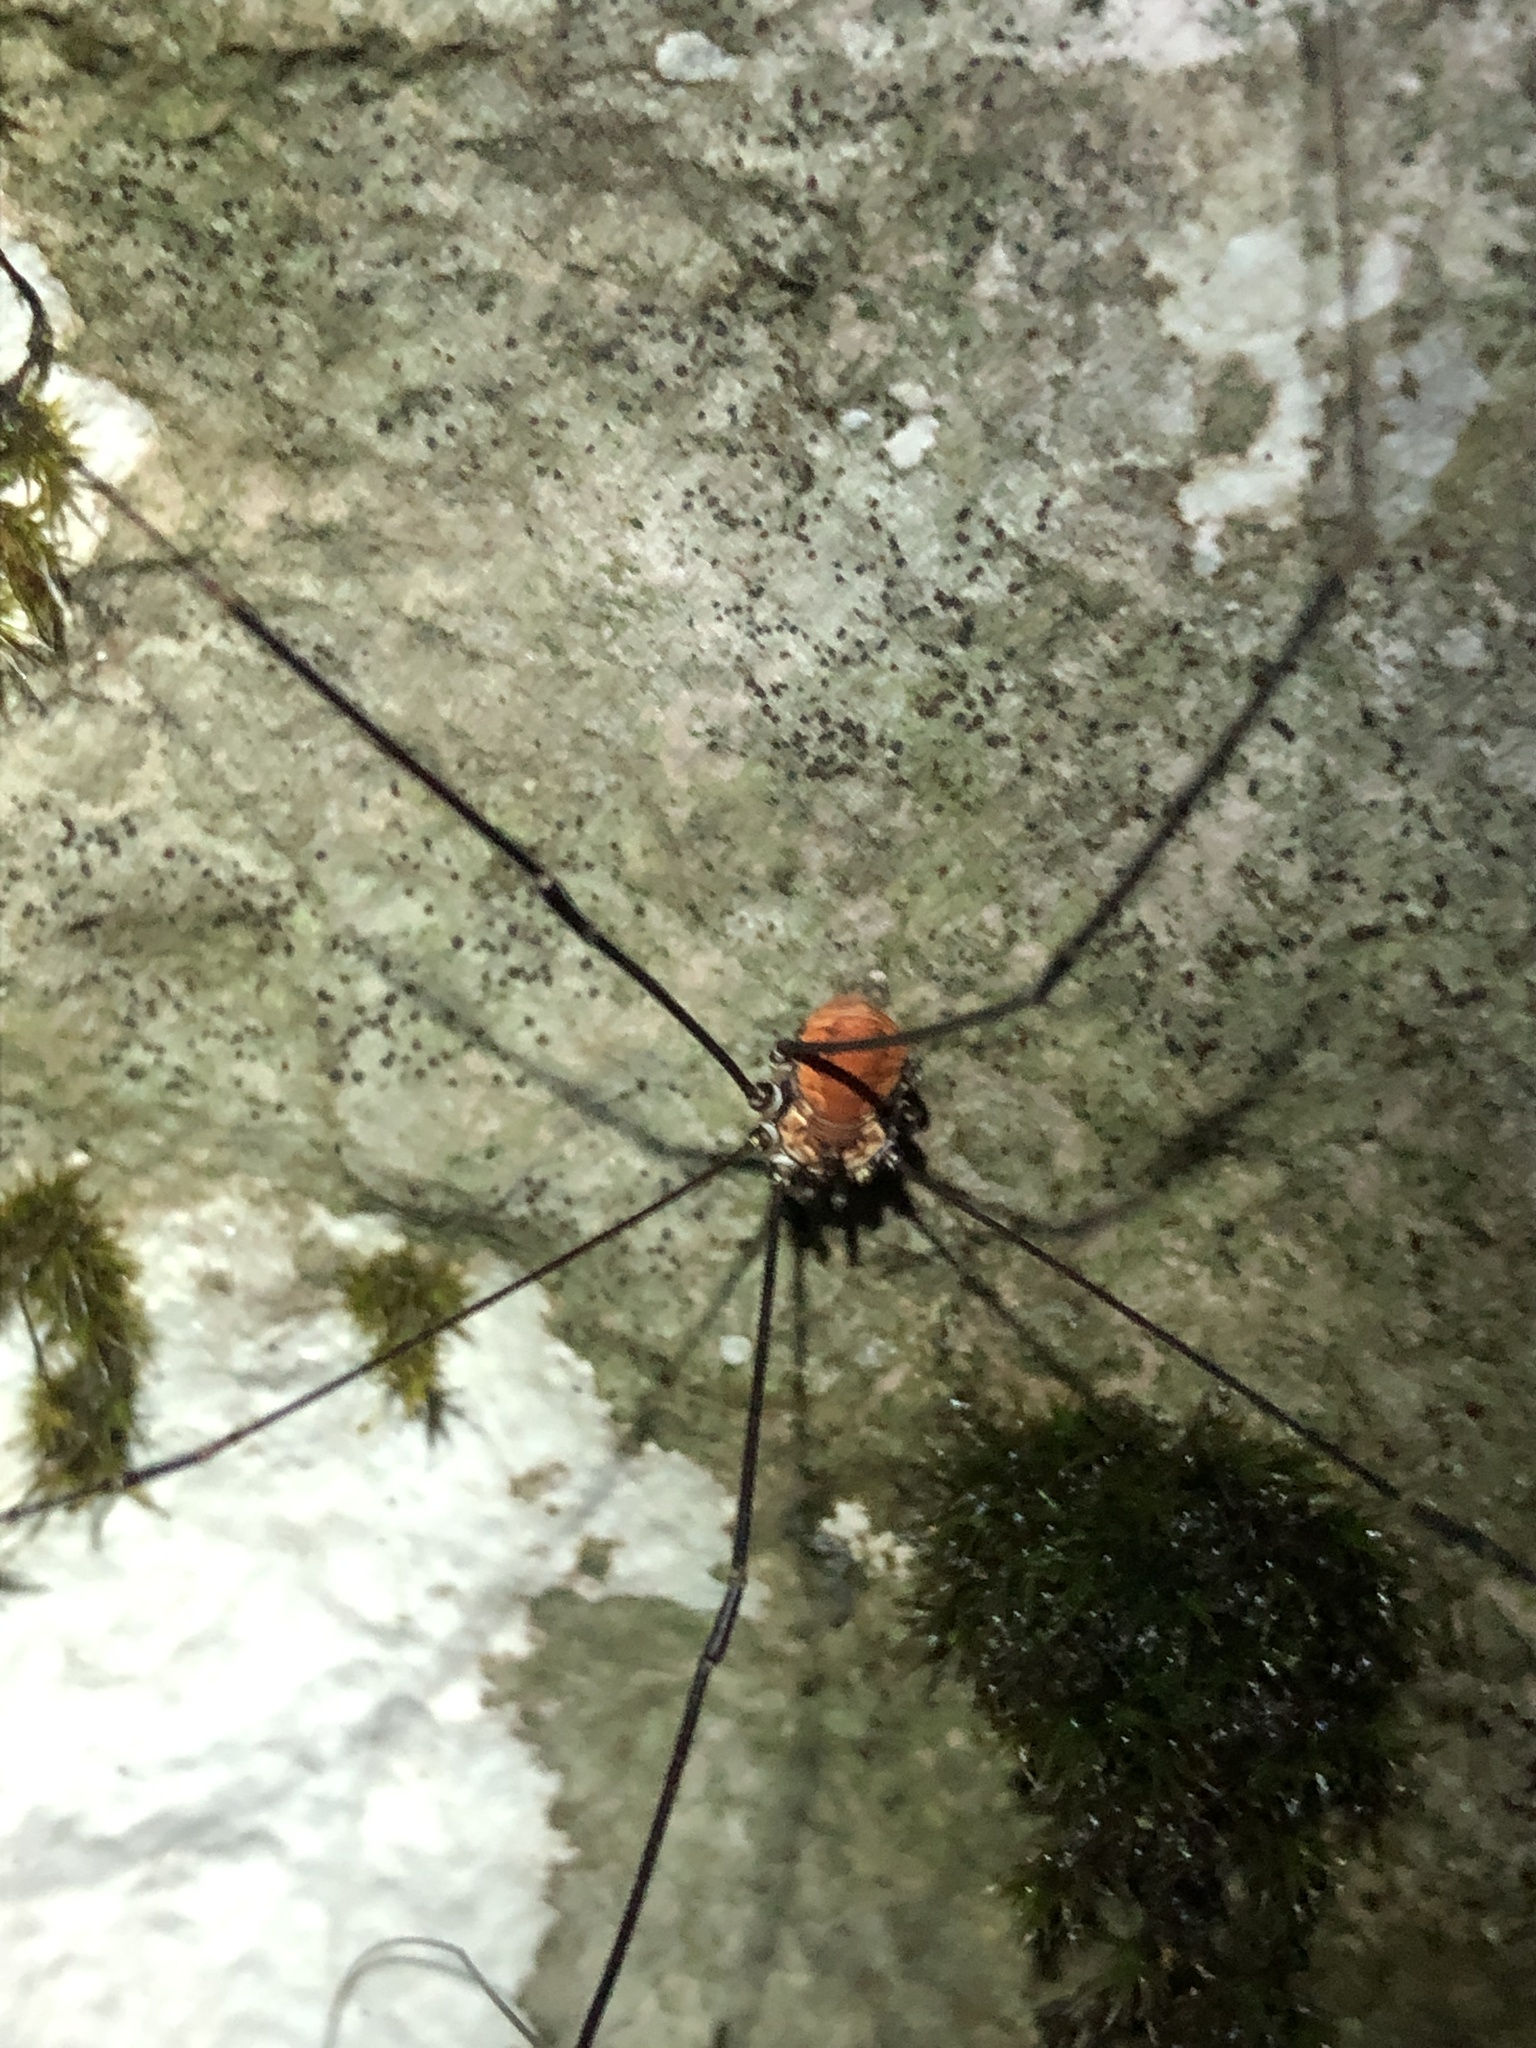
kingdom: Animalia
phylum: Arthropoda
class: Arachnida
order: Opiliones
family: Sclerosomatidae
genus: Leiobunum
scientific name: Leiobunum limbatum
